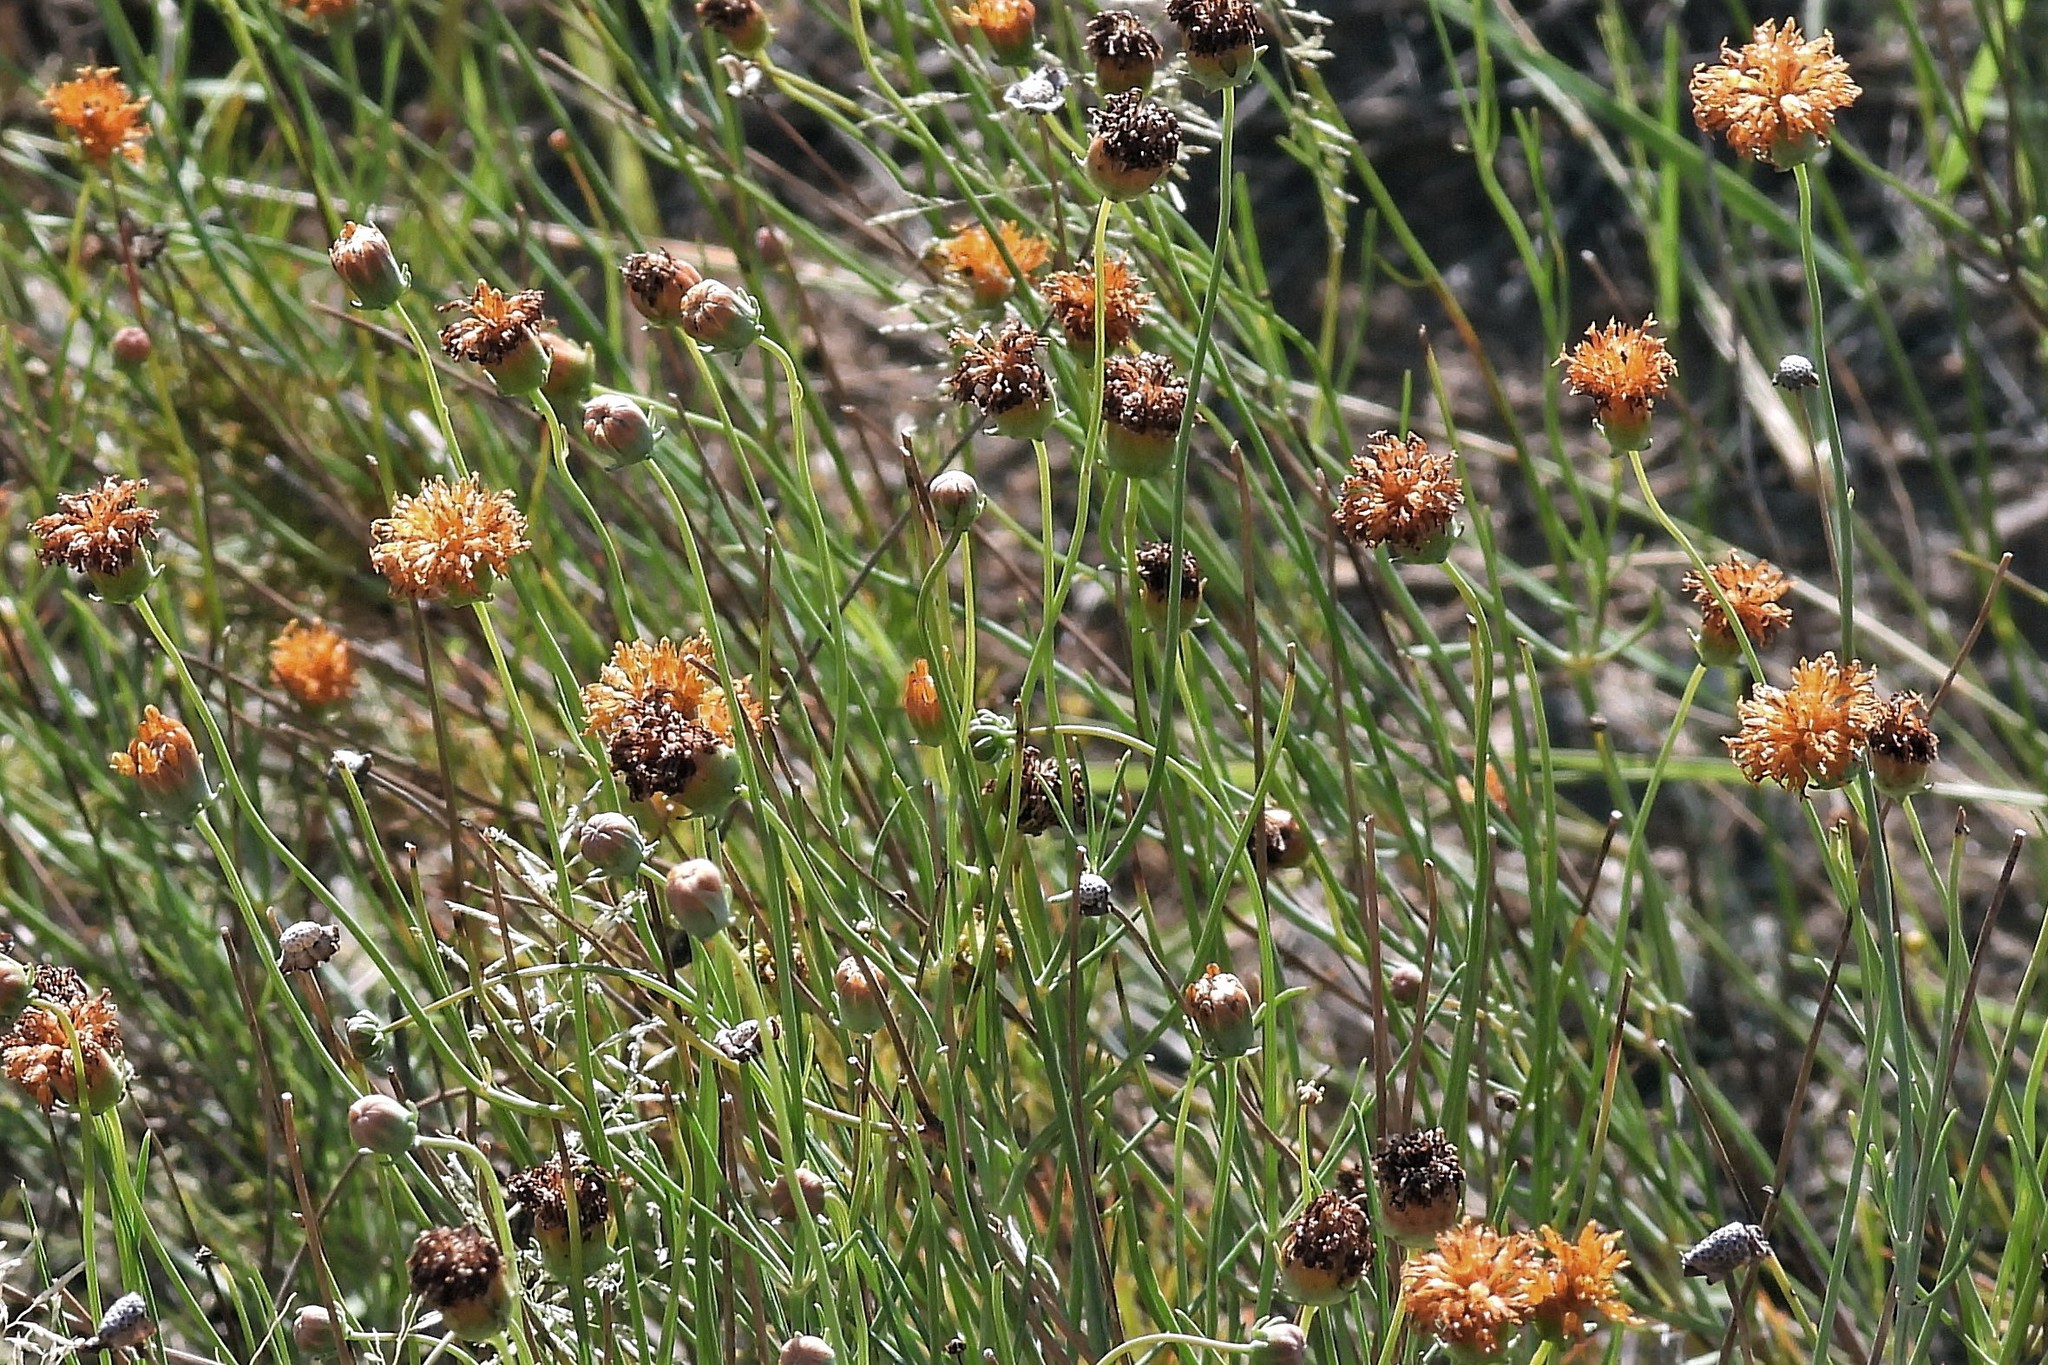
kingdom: Plantae
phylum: Tracheophyta
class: Magnoliopsida
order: Asterales
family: Asteraceae
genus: Thelesperma
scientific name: Thelesperma megapotamicum
